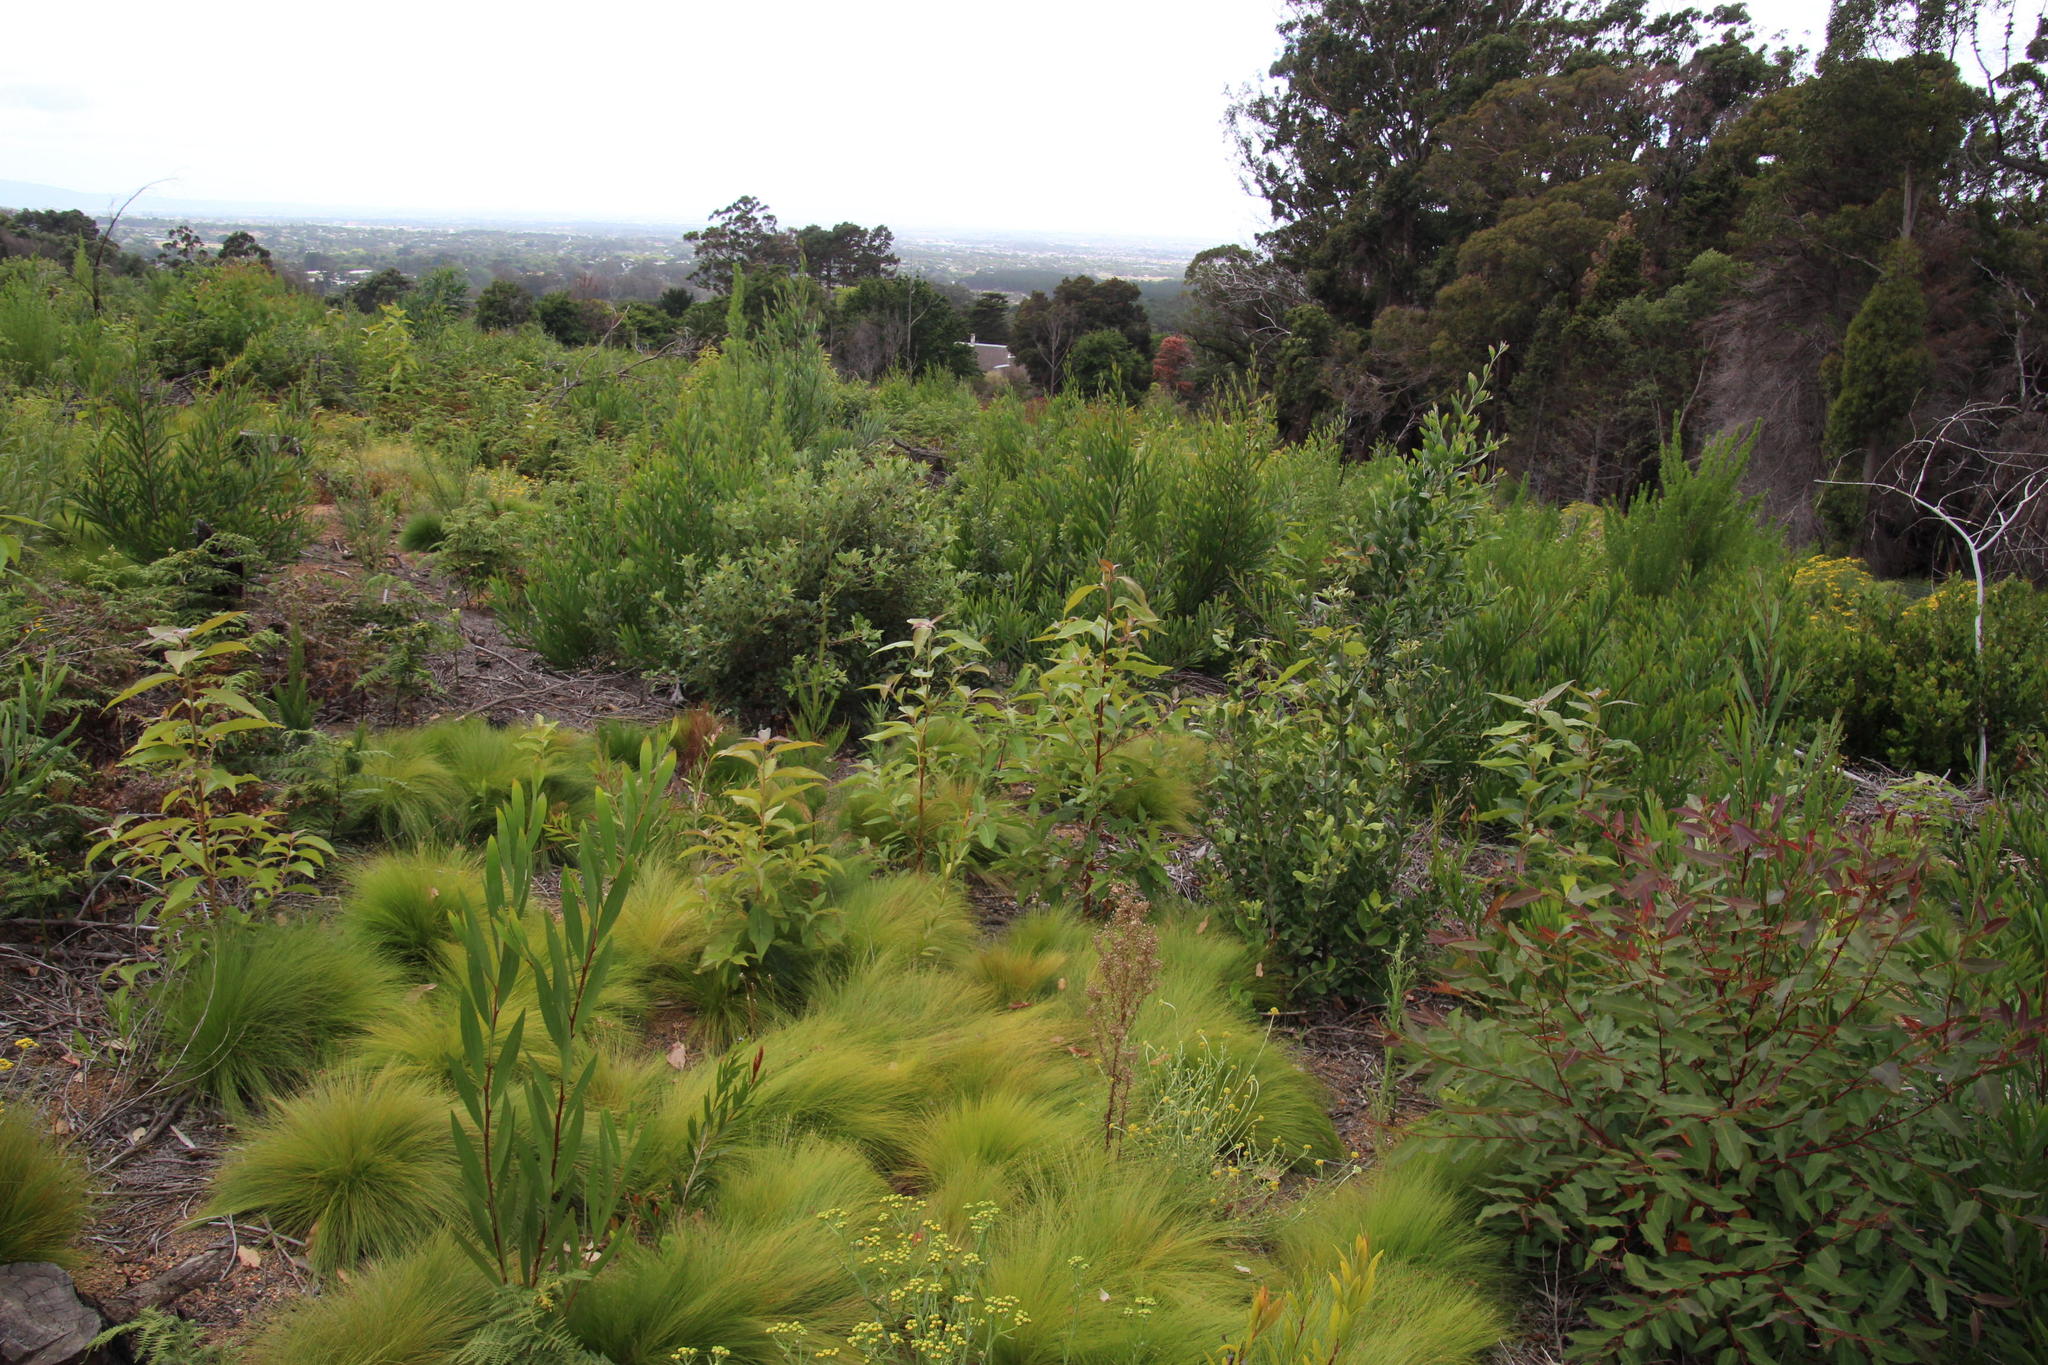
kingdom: Plantae
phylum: Tracheophyta
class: Magnoliopsida
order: Myrtales
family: Myrtaceae
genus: Syncarpia
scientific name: Syncarpia glomulifera
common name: Turpentine tree
